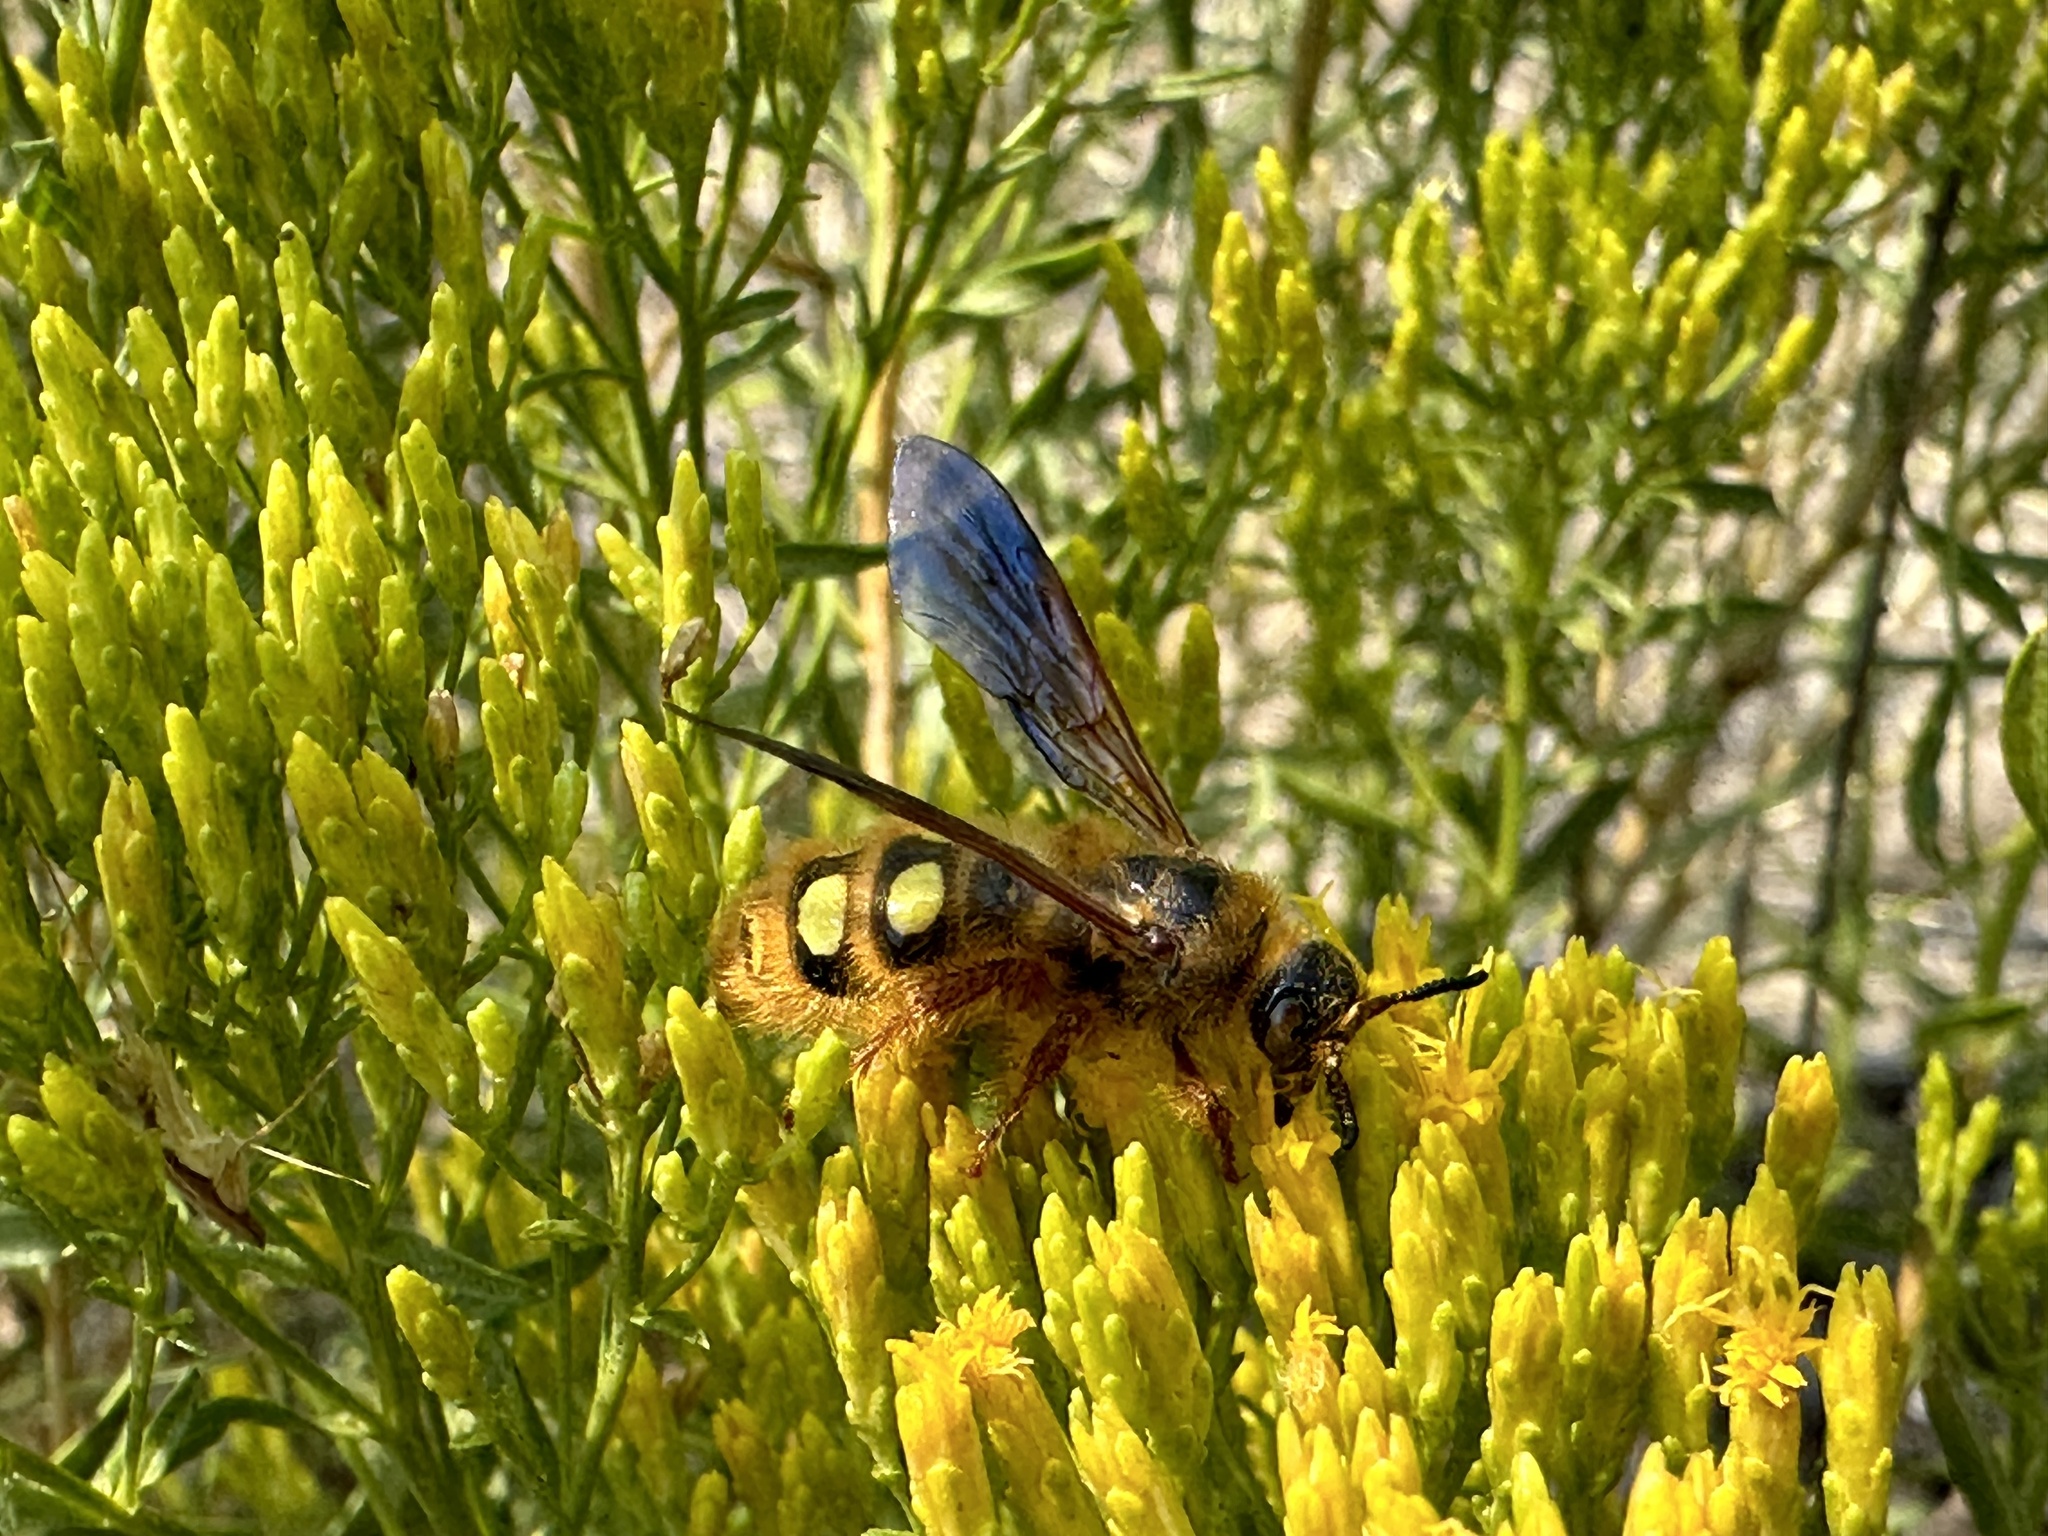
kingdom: Animalia
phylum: Arthropoda
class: Insecta
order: Hymenoptera
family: Sphecidae
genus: Crioscolia
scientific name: Crioscolia
